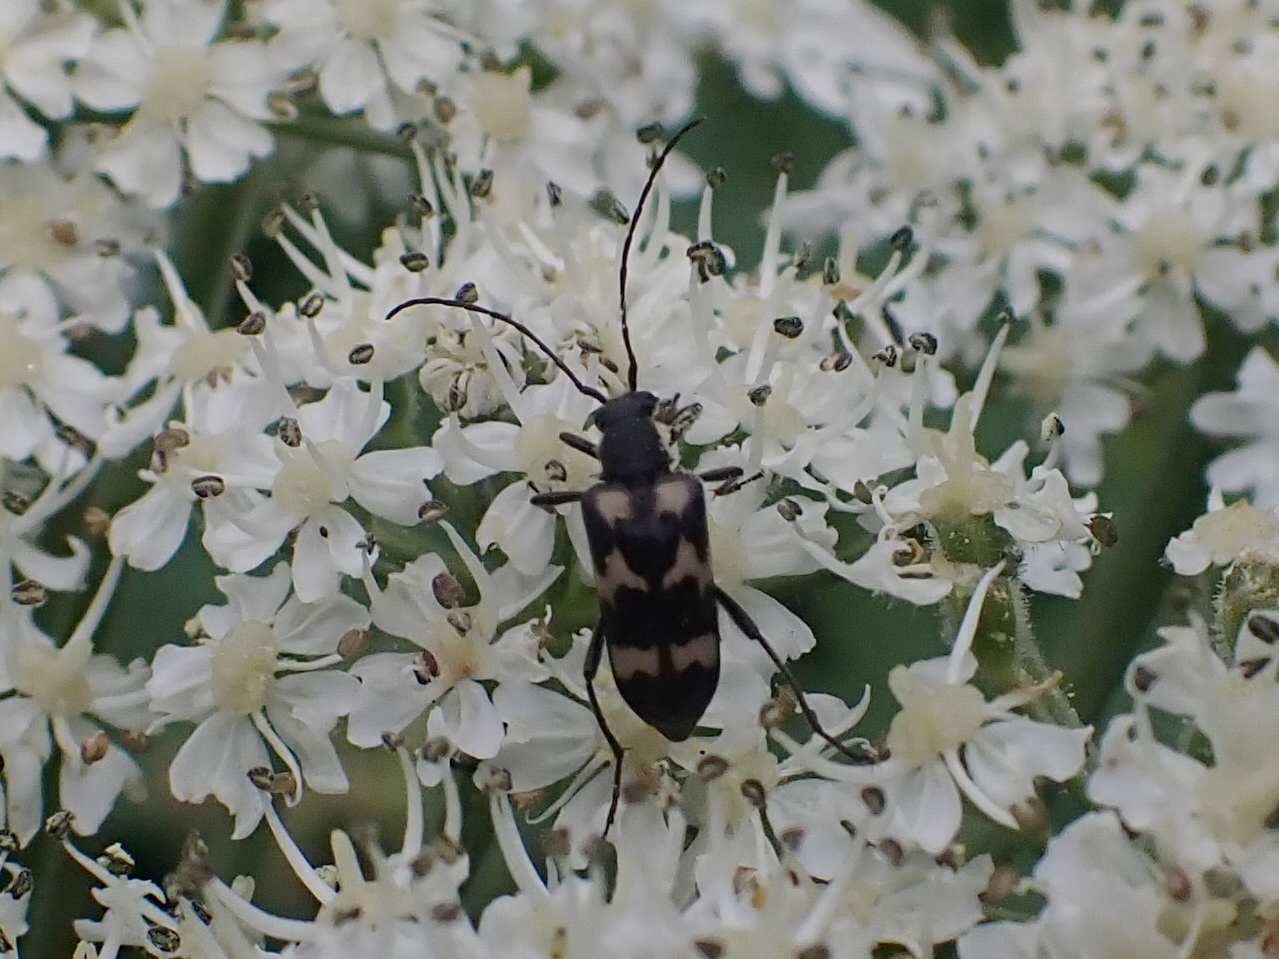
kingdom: Animalia
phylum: Arthropoda
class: Insecta
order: Coleoptera
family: Cerambycidae
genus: Judolia
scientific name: Judolia montivagans
